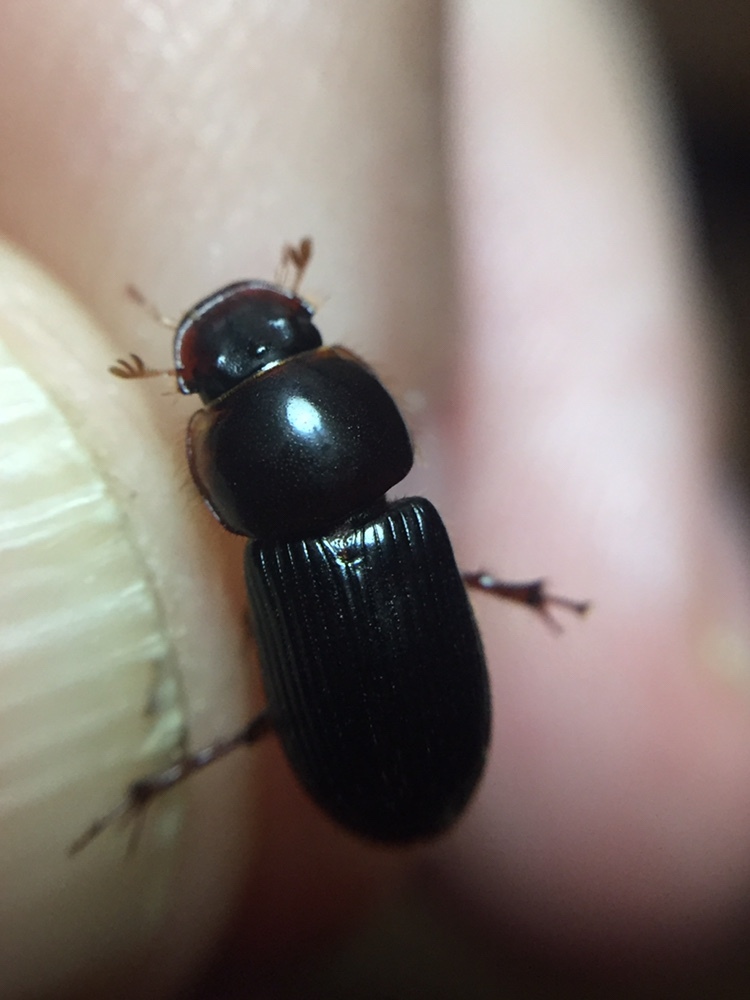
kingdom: Animalia
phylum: Arthropoda
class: Insecta
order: Coleoptera
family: Scarabaeidae
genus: Acrossidius
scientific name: Acrossidius tasmaniae
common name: Black-headed pasture cockchafer
